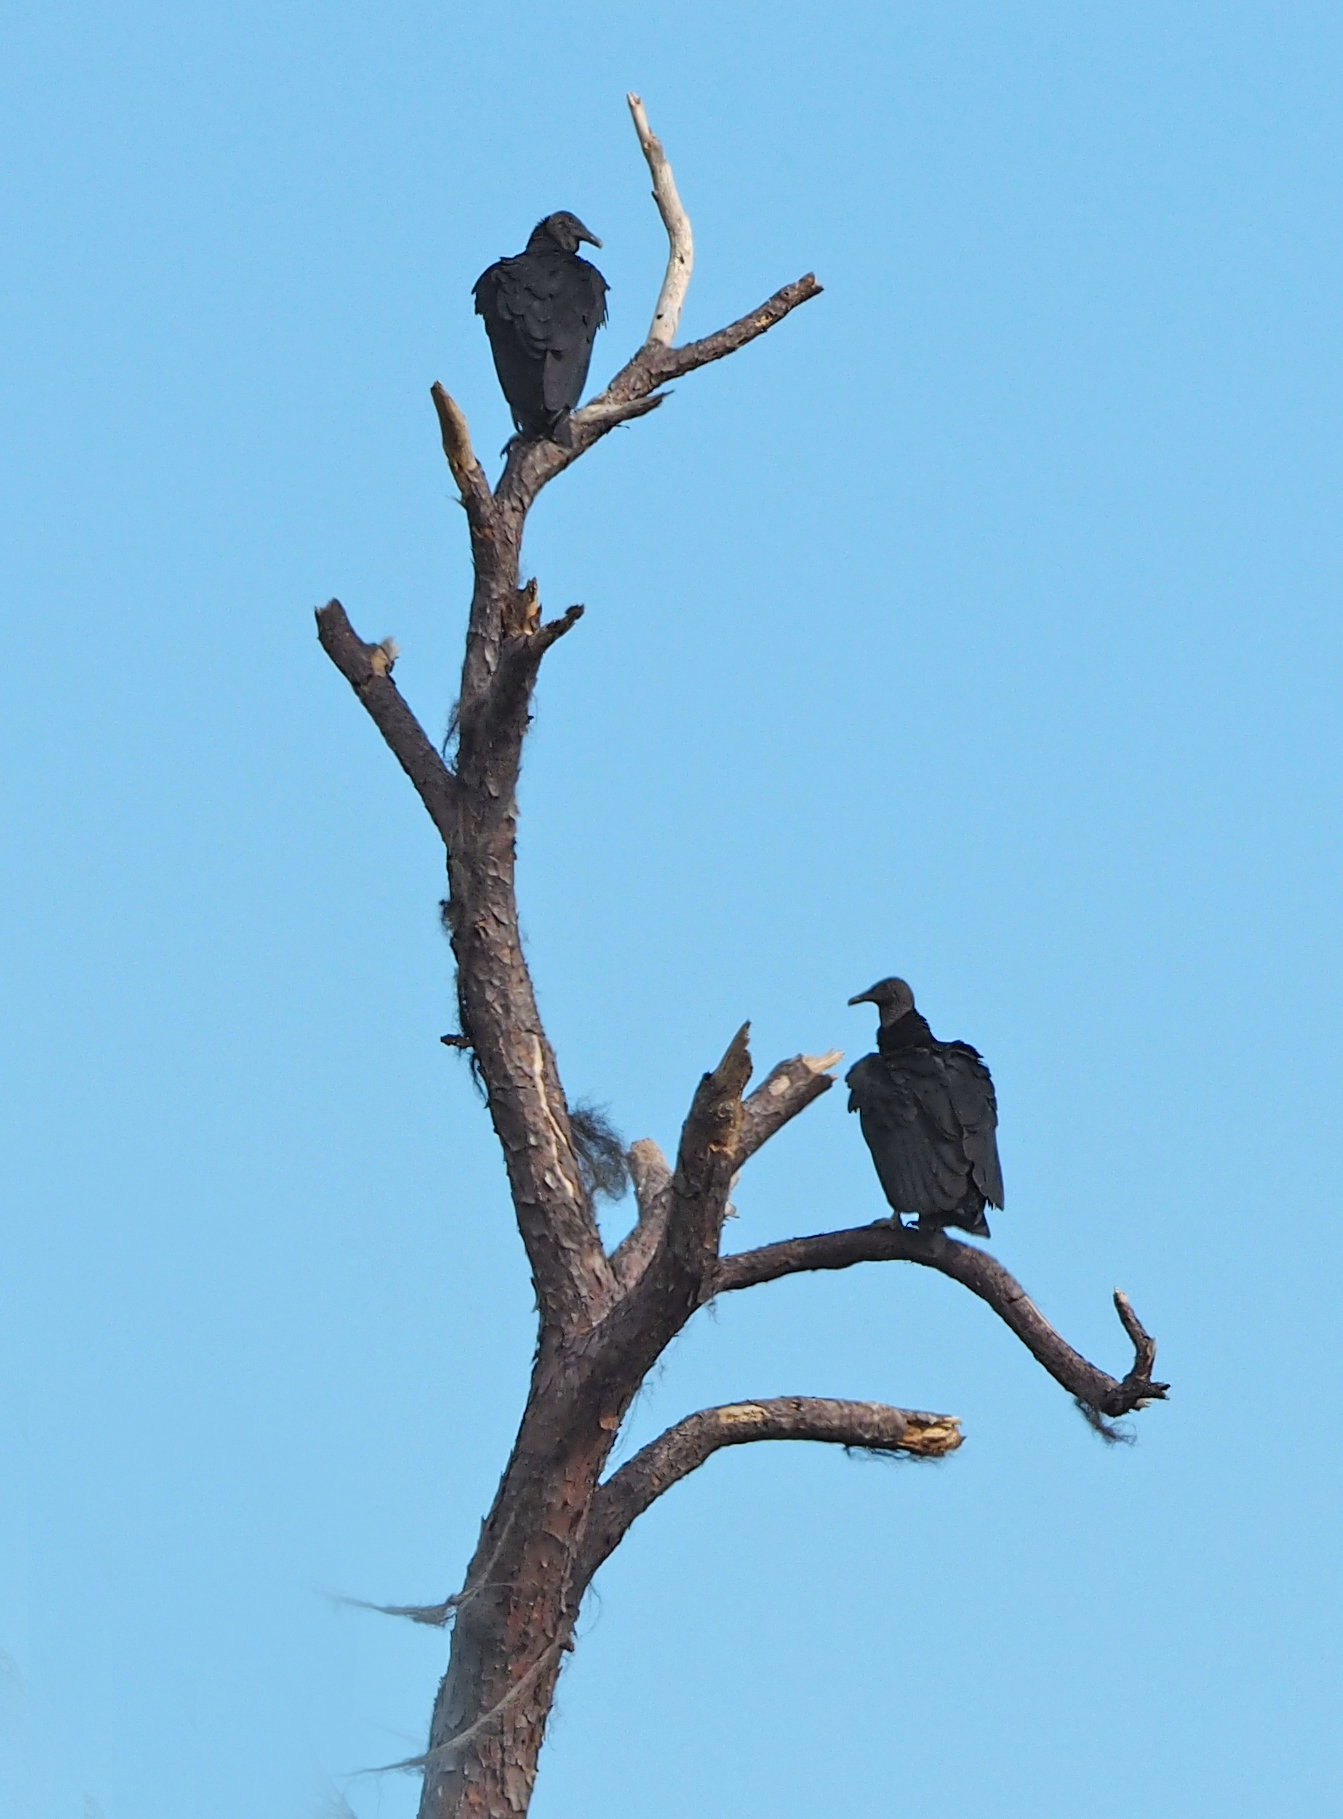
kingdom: Animalia
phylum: Chordata
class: Aves
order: Accipitriformes
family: Cathartidae
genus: Coragyps
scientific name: Coragyps atratus
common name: Black vulture
